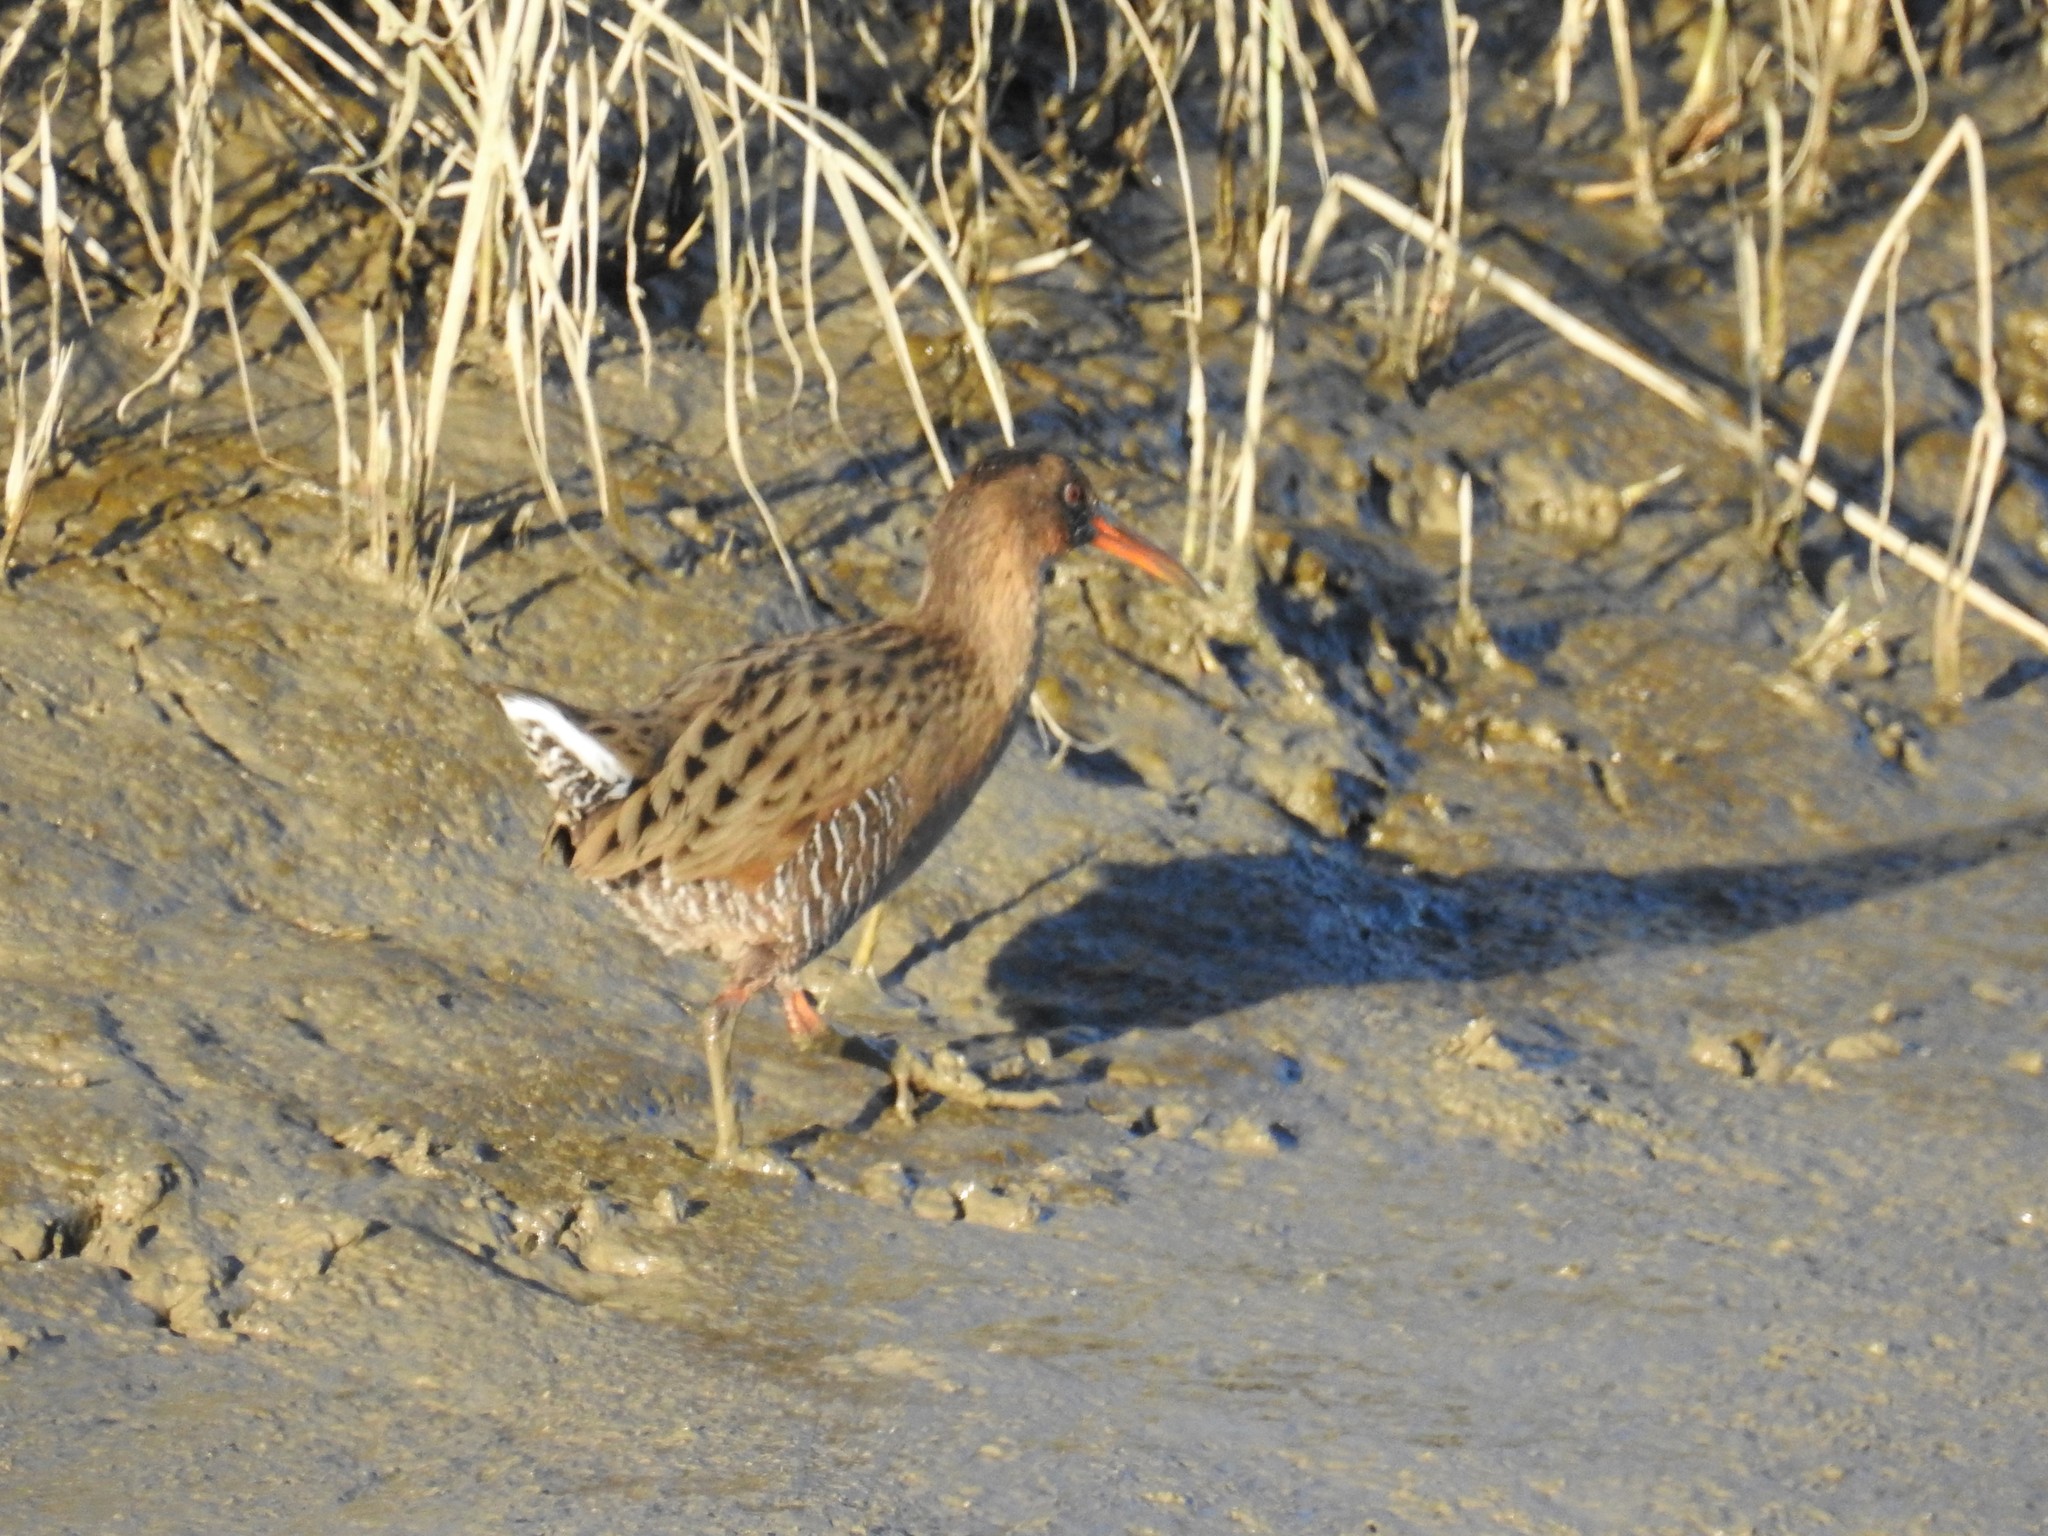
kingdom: Animalia
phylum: Chordata
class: Aves
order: Gruiformes
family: Rallidae
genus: Rallus
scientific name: Rallus obsoletus
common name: Ridgway's rail
